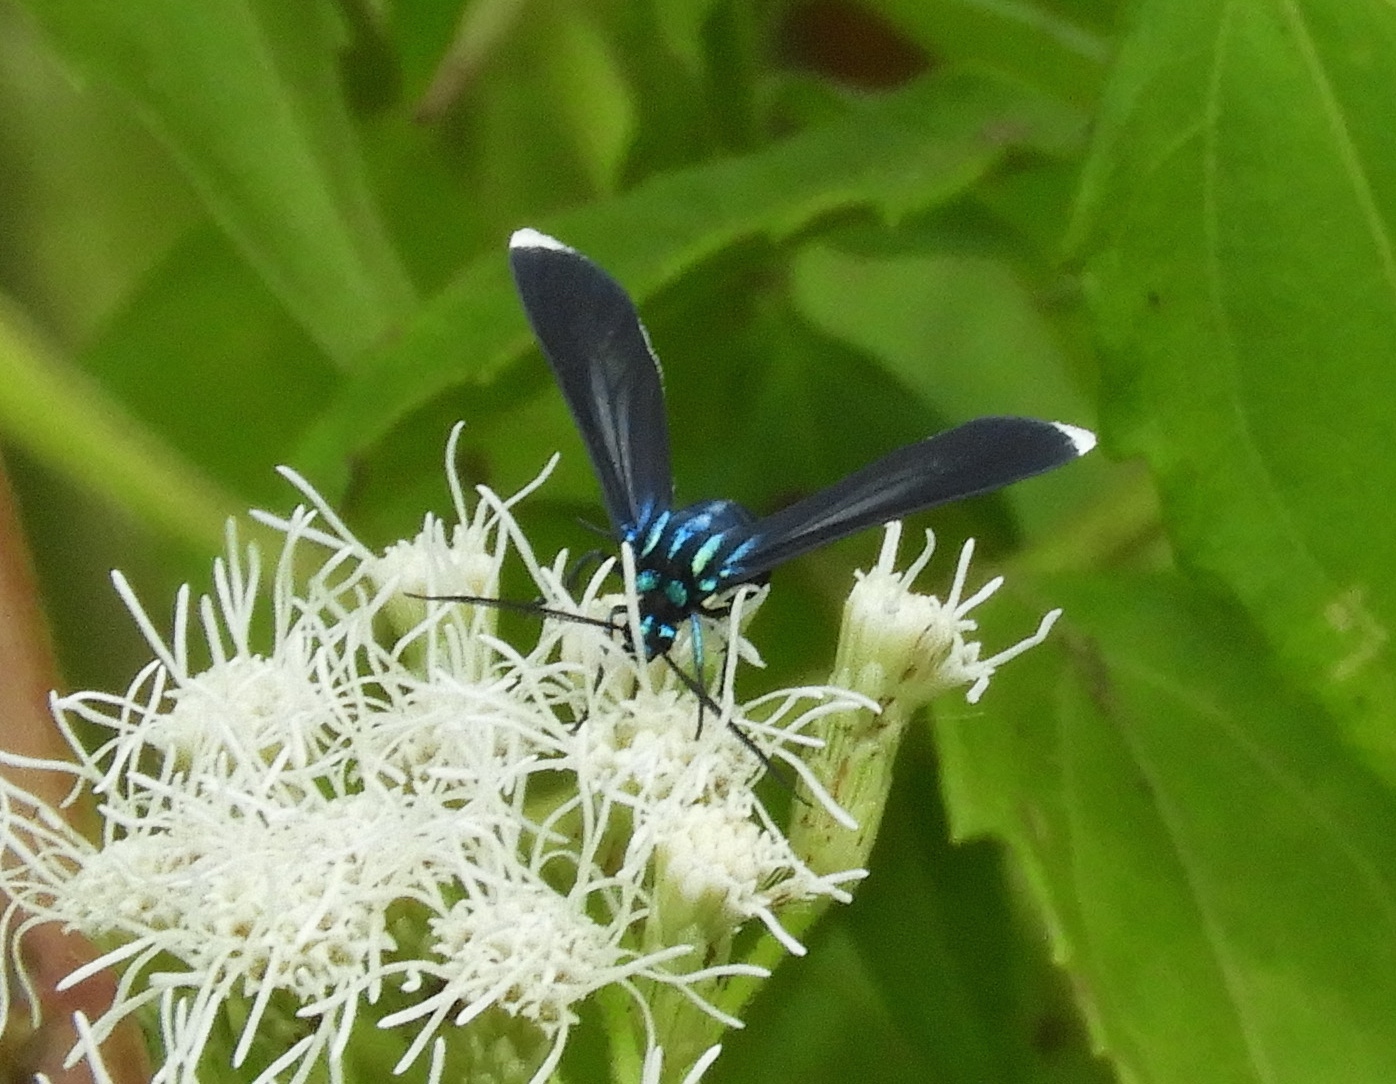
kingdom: Animalia
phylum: Arthropoda
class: Insecta
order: Lepidoptera
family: Erebidae
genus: Uranophora
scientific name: Uranophora leucotela
